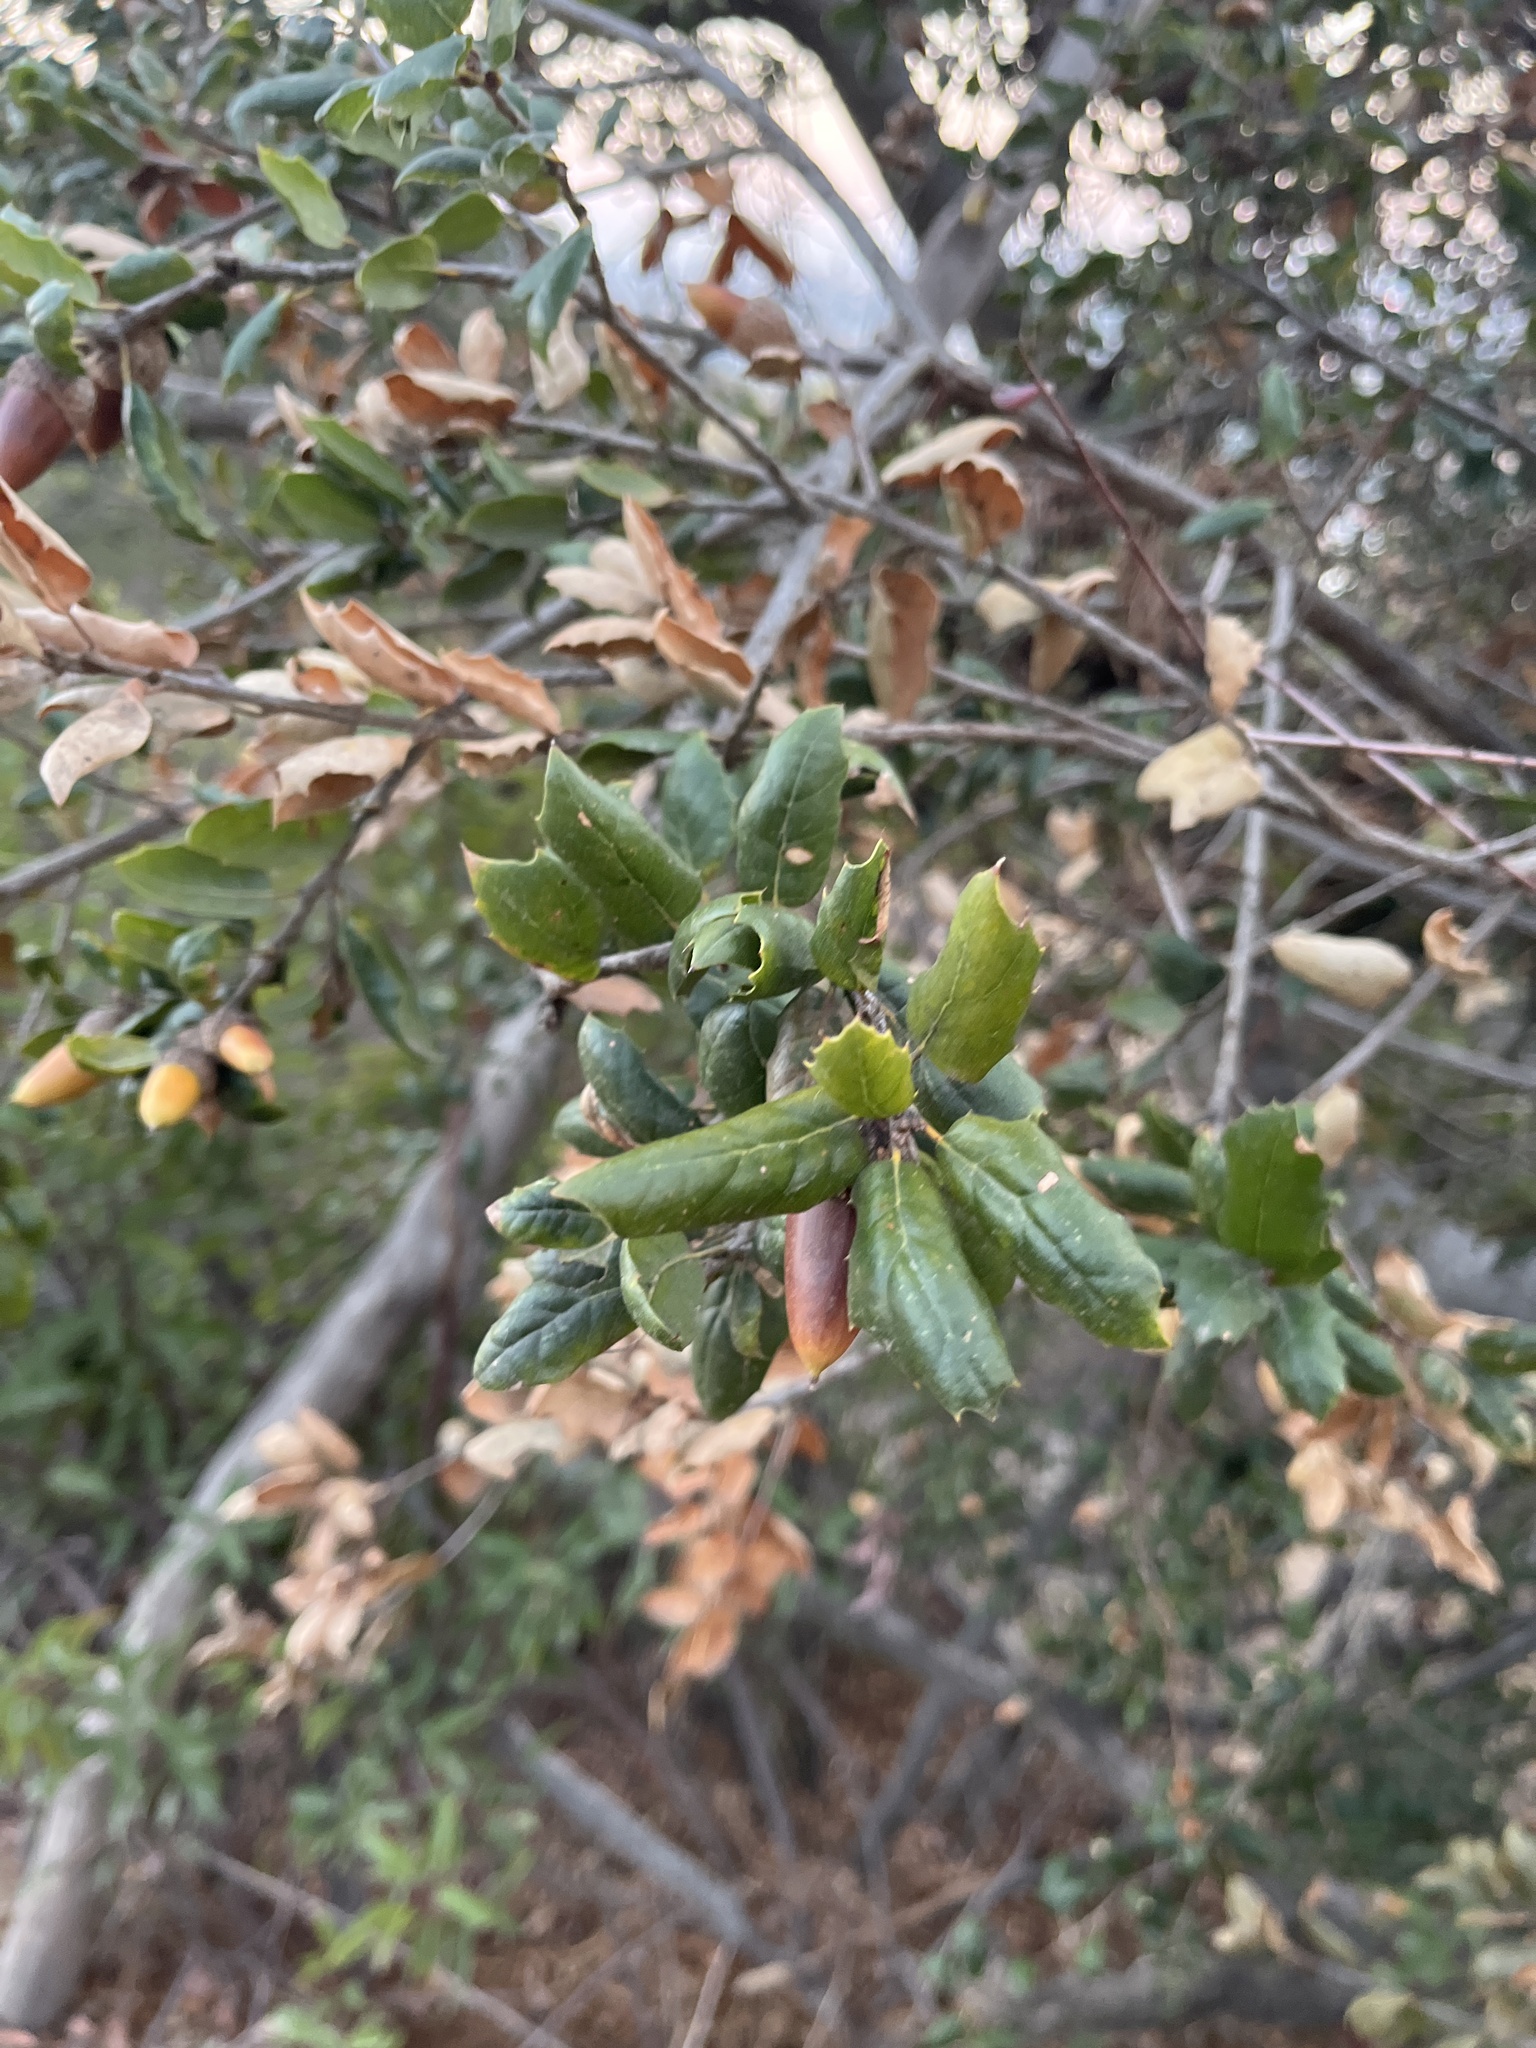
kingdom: Plantae
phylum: Tracheophyta
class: Magnoliopsida
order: Fagales
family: Fagaceae
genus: Quercus
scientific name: Quercus agrifolia
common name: California live oak
